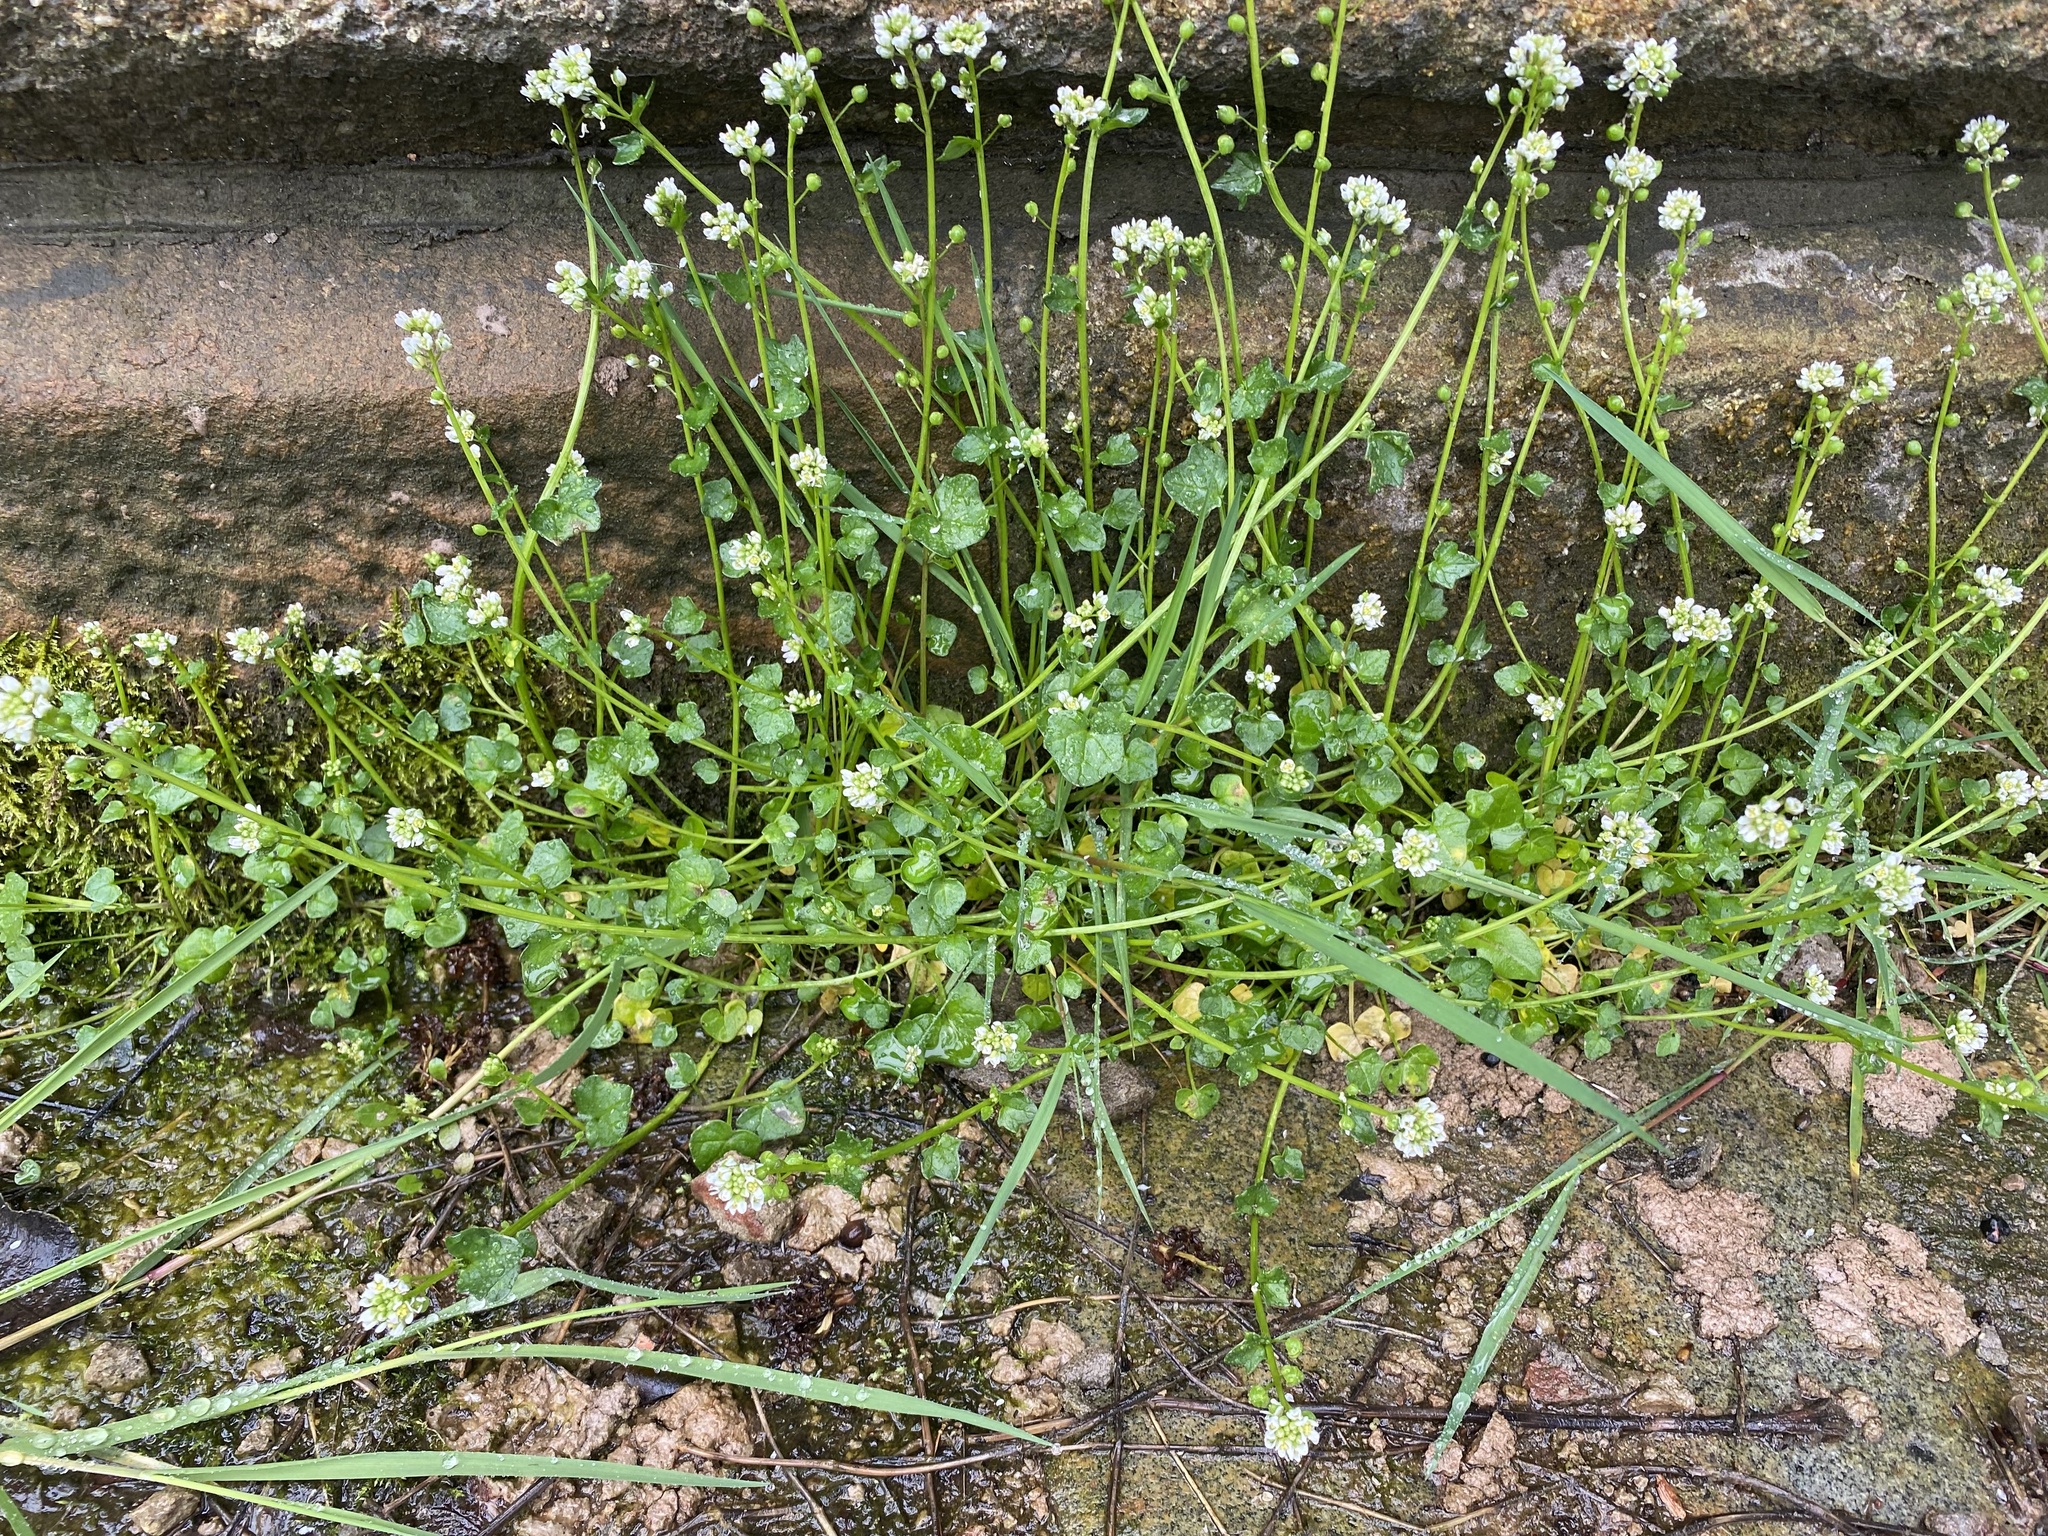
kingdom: Plantae
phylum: Tracheophyta
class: Magnoliopsida
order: Brassicales
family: Brassicaceae
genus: Cochlearia
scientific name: Cochlearia danica
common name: Early scurvygrass
